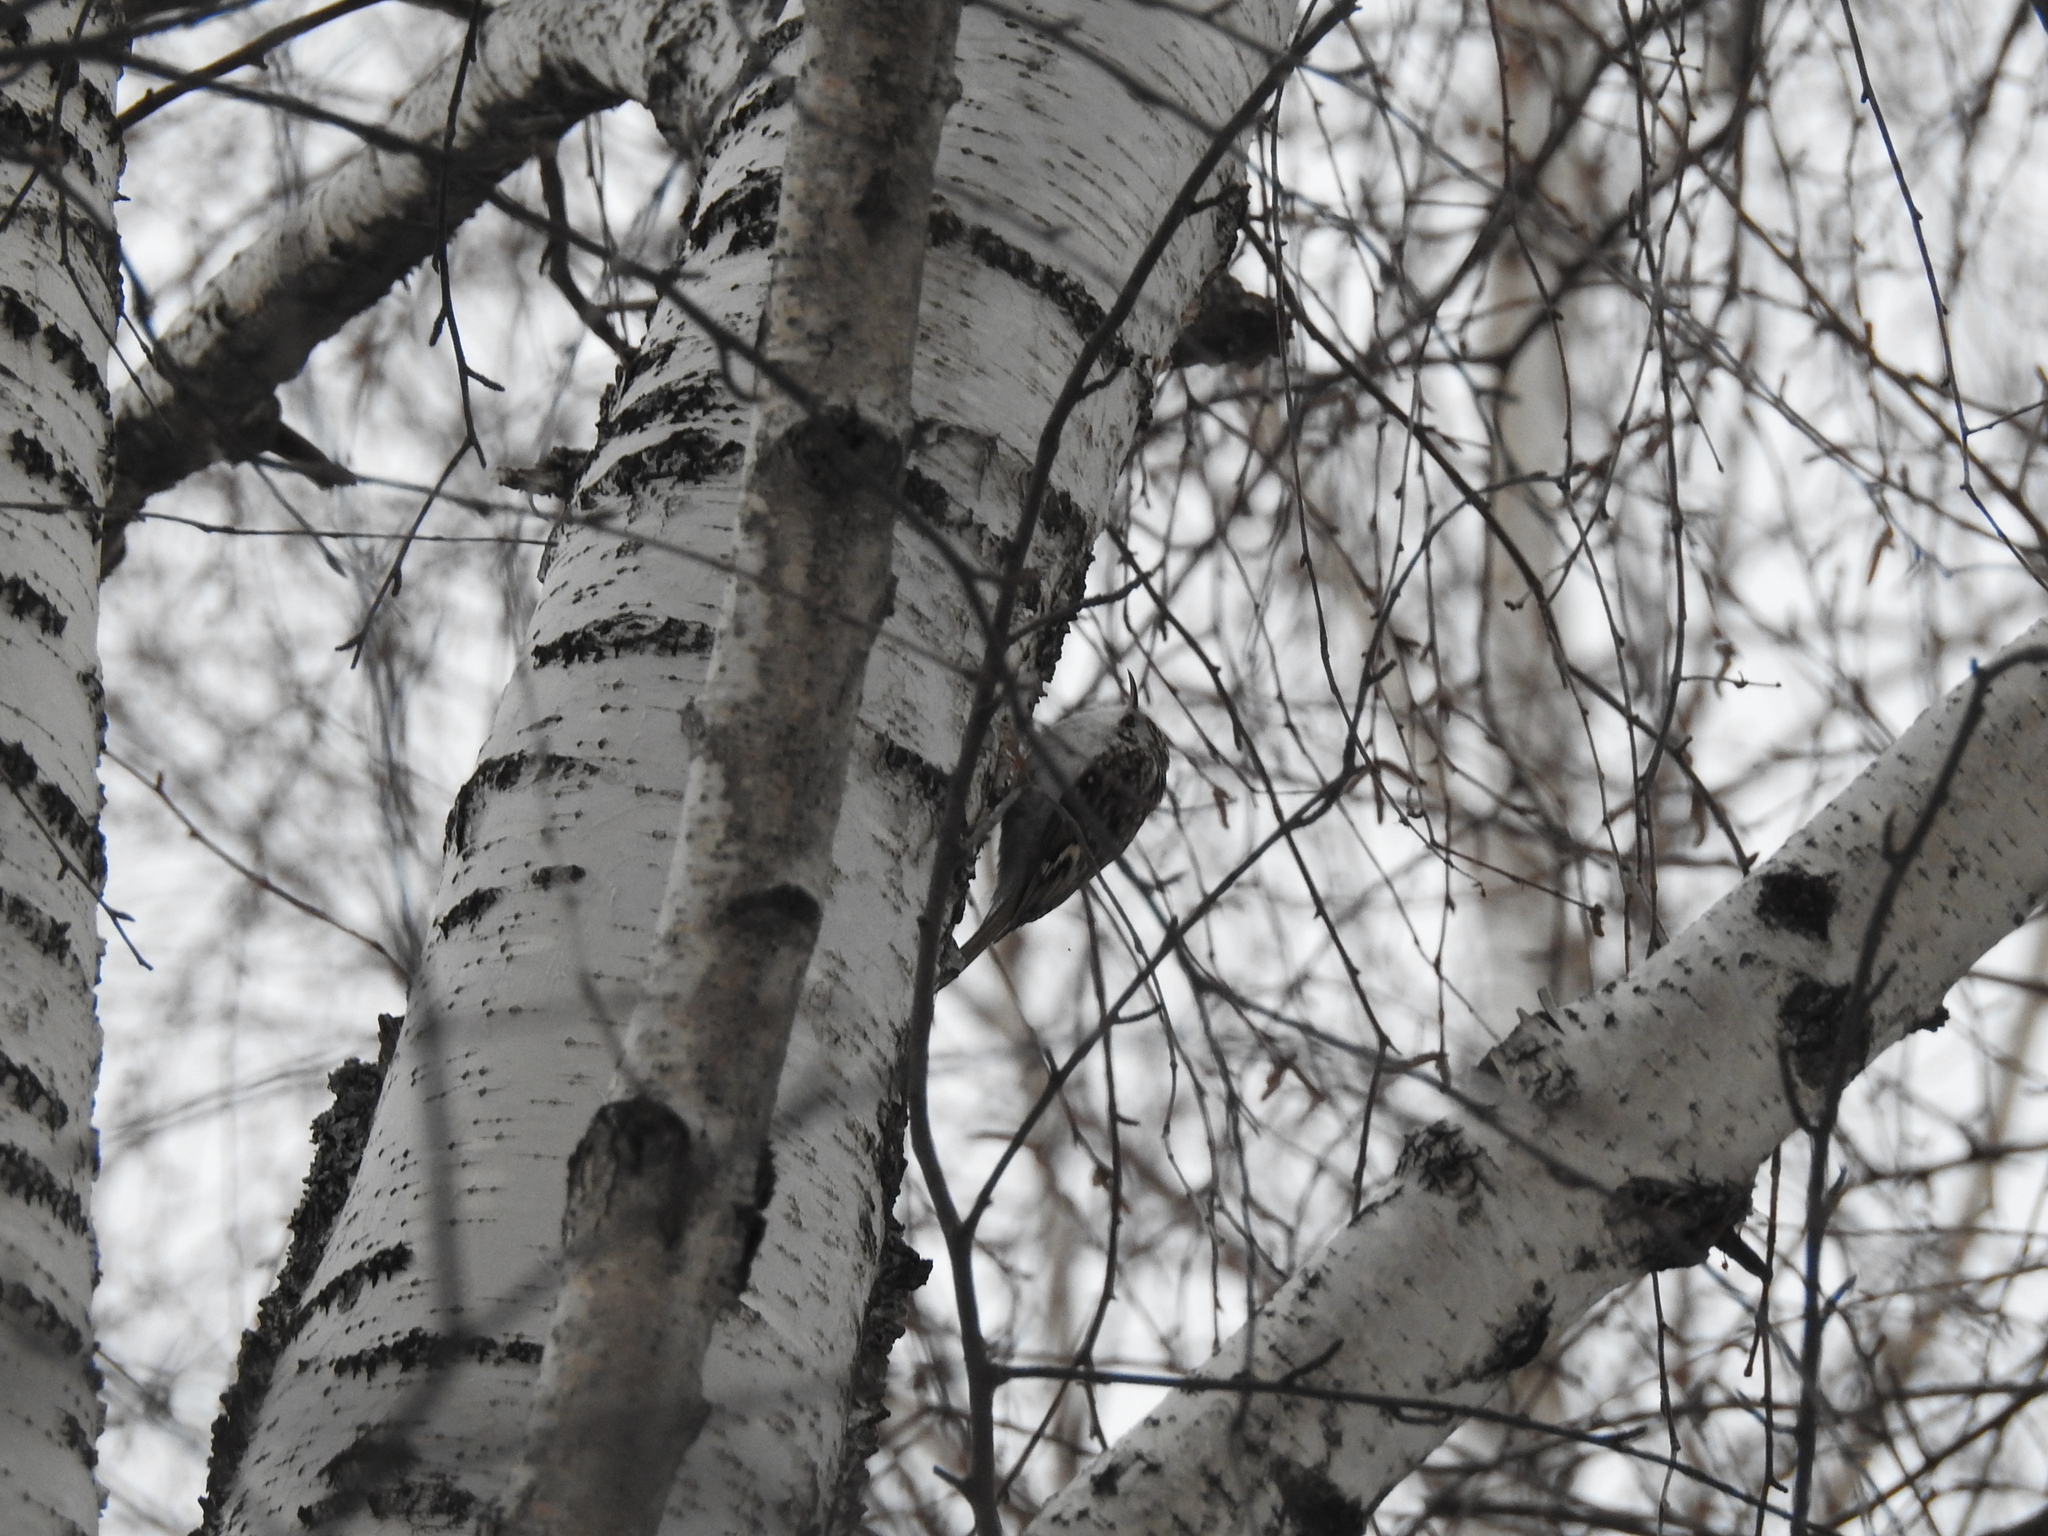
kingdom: Animalia
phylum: Chordata
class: Aves
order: Passeriformes
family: Certhiidae
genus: Certhia
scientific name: Certhia familiaris
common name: Eurasian treecreeper
